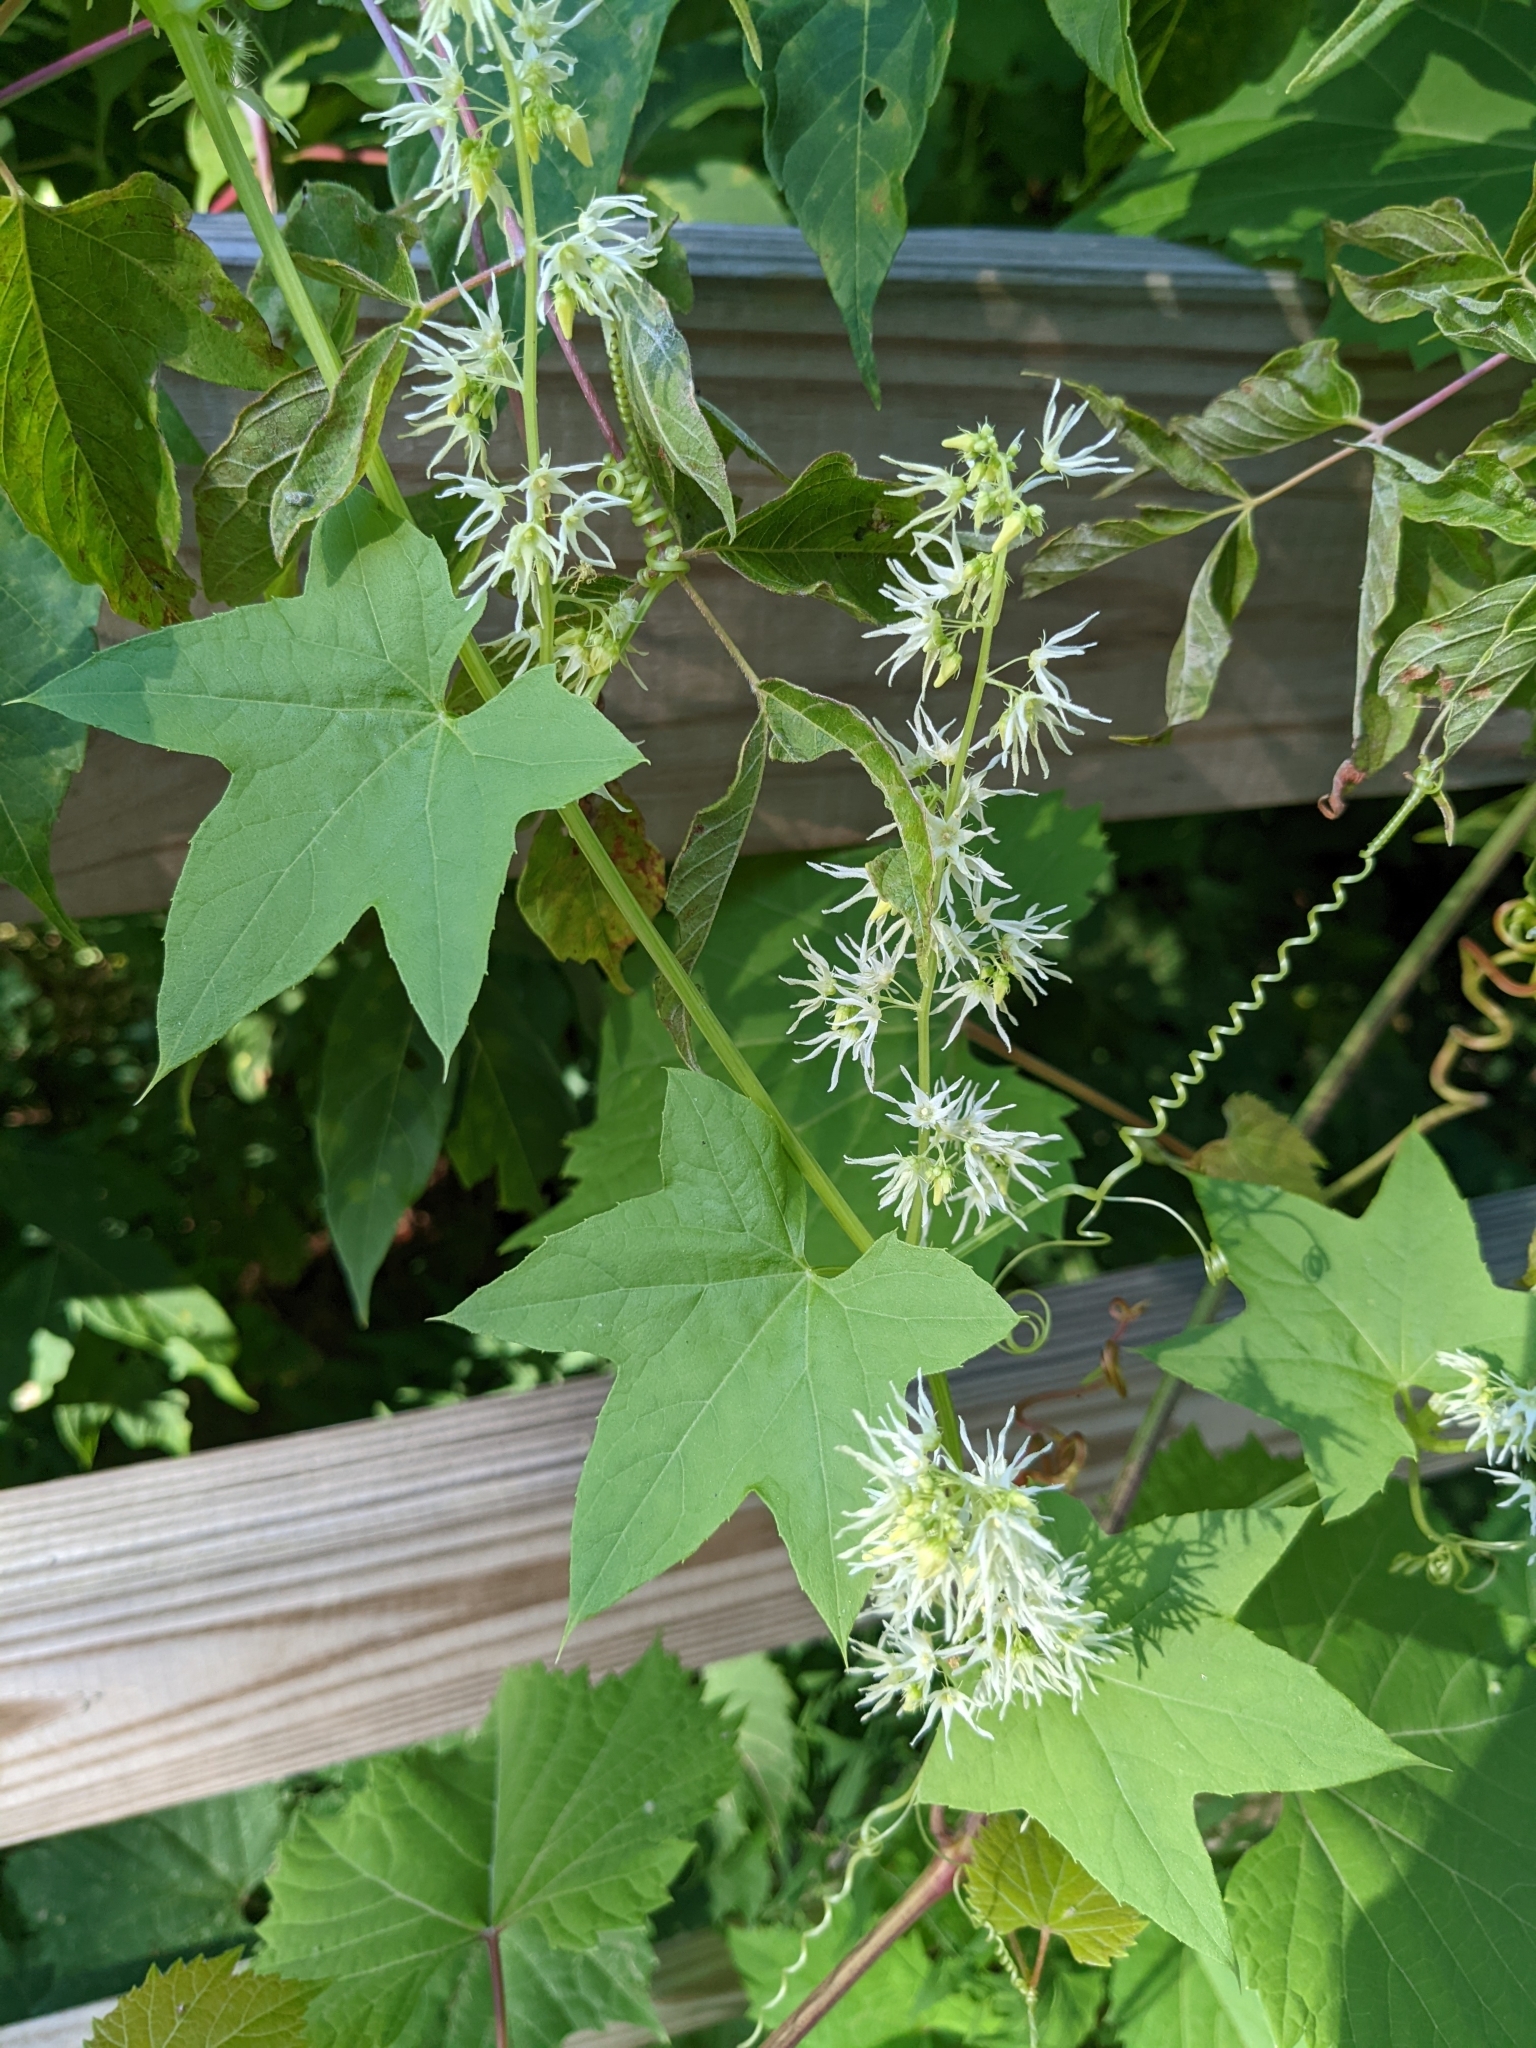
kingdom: Plantae
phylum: Tracheophyta
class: Magnoliopsida
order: Cucurbitales
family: Cucurbitaceae
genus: Echinocystis
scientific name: Echinocystis lobata
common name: Wild cucumber
